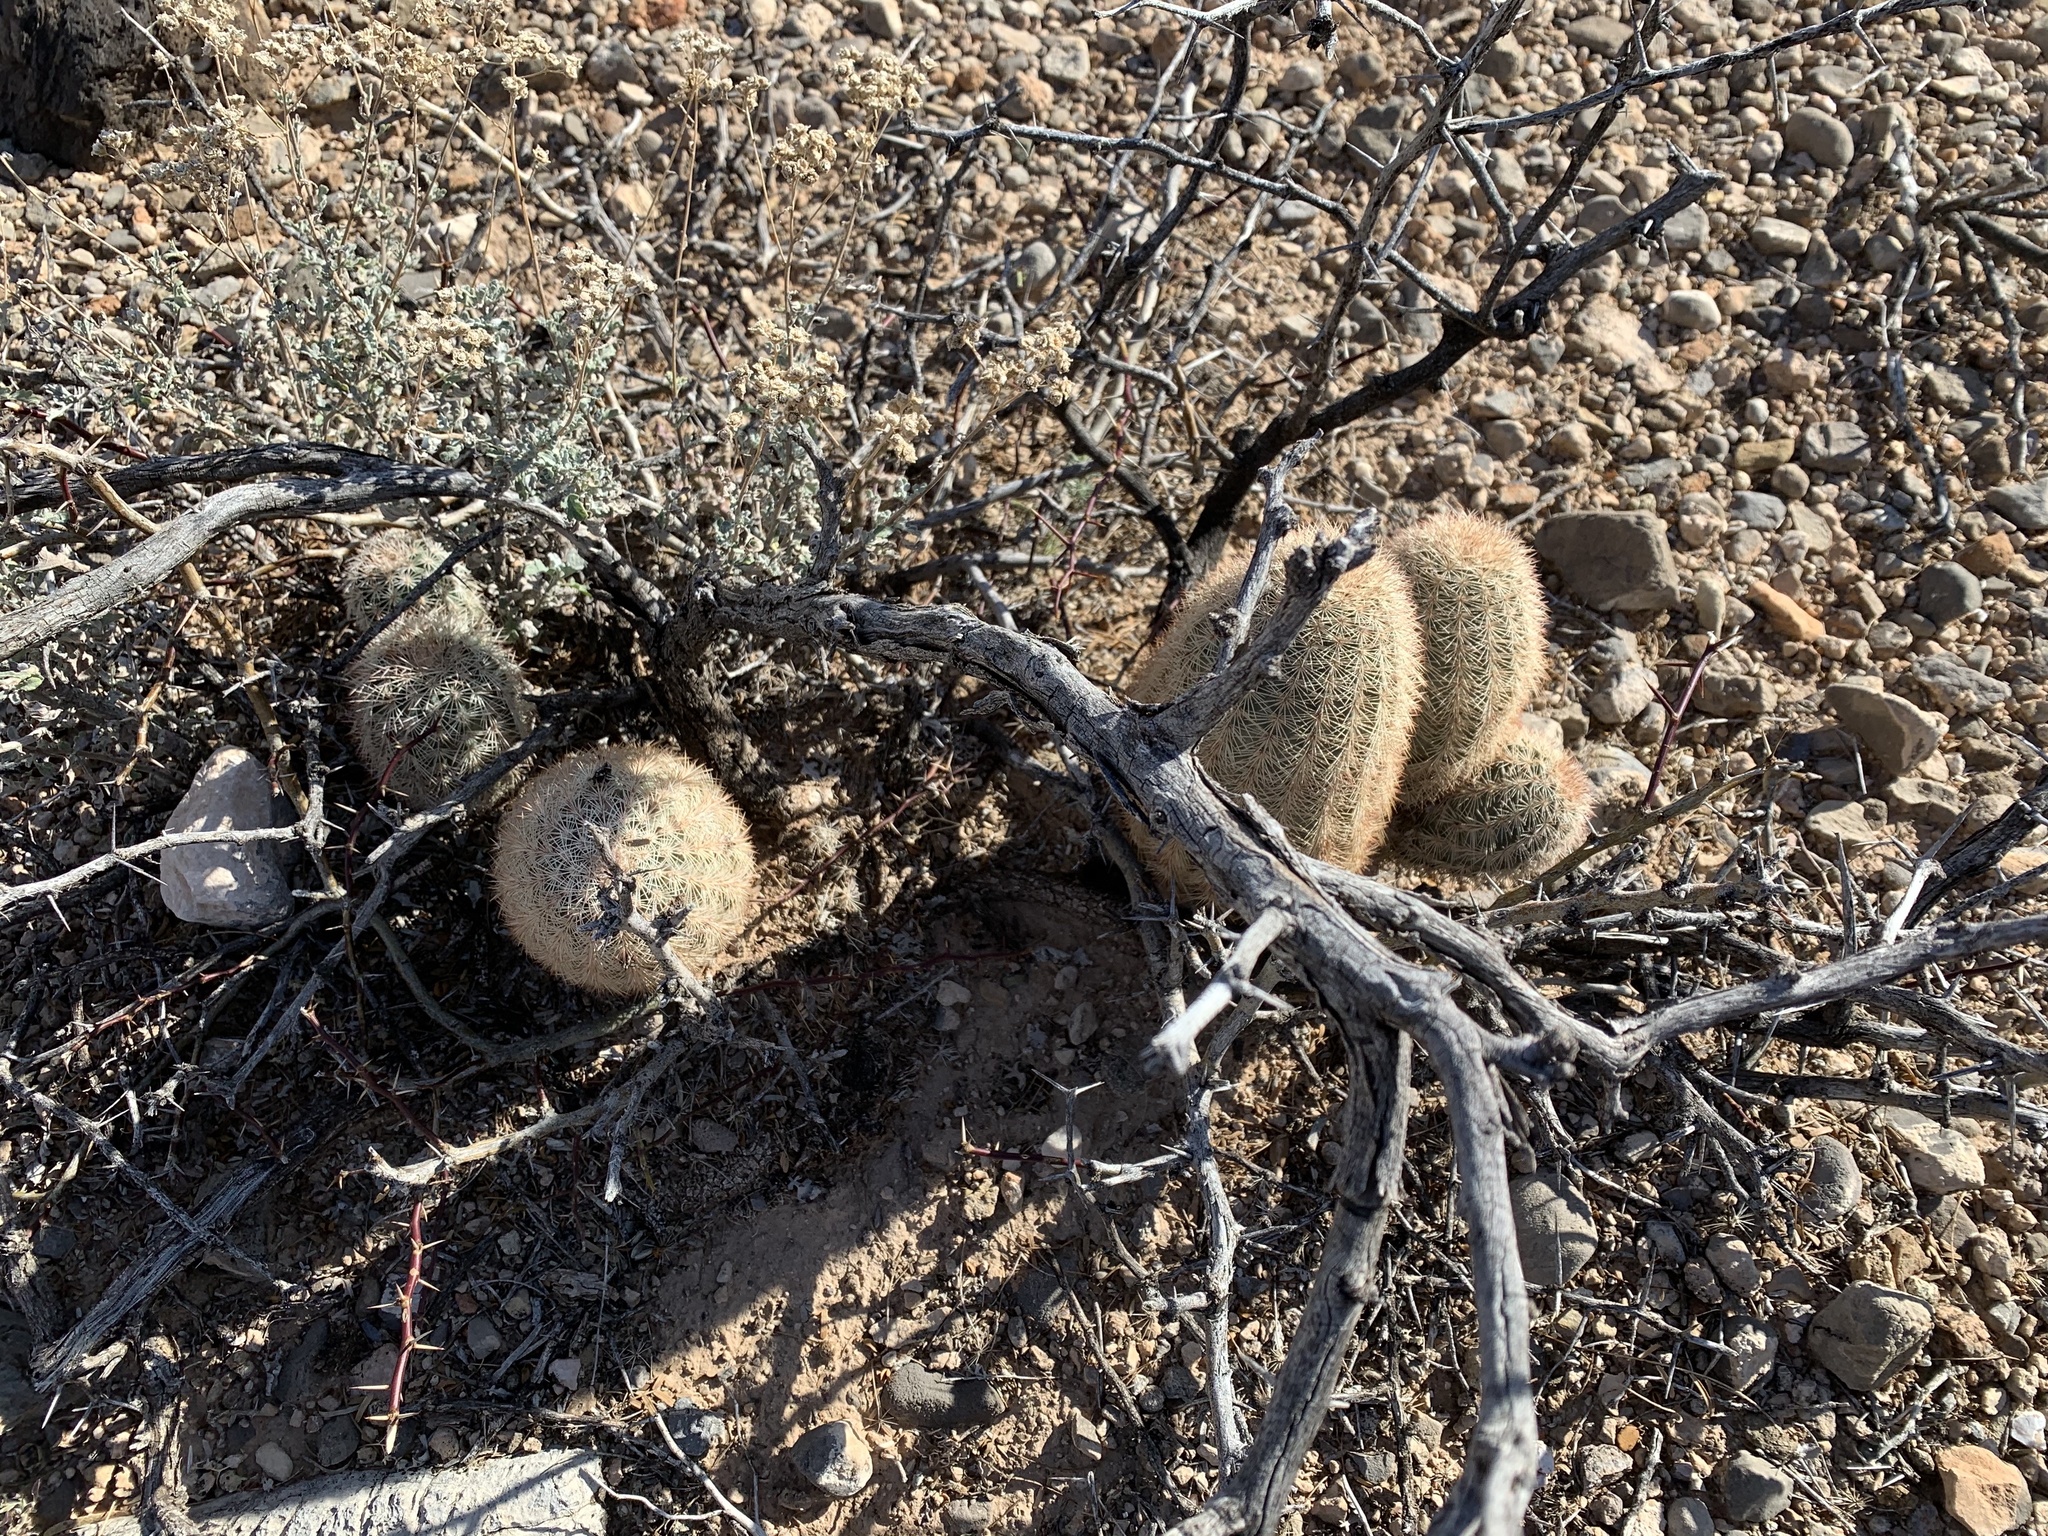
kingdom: Plantae
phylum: Tracheophyta
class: Magnoliopsida
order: Caryophyllales
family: Cactaceae
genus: Echinocereus
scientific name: Echinocereus dasyacanthus
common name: Spiny hedgehog cactus
